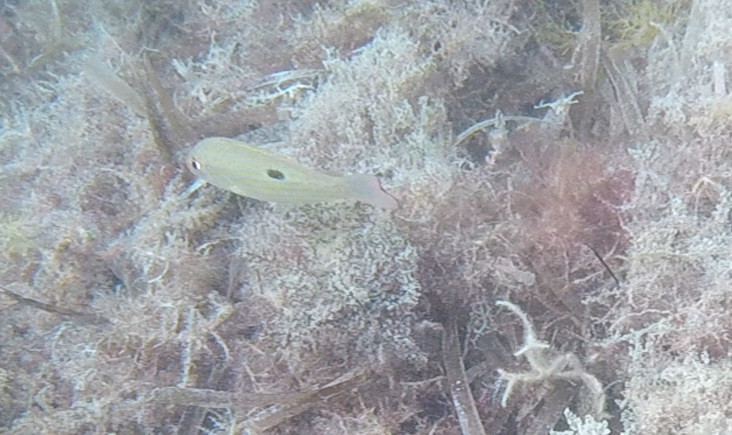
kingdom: Animalia
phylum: Chordata
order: Perciformes
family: Lutjanidae
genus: Lutjanus
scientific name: Lutjanus synagris
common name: Lane snapper
